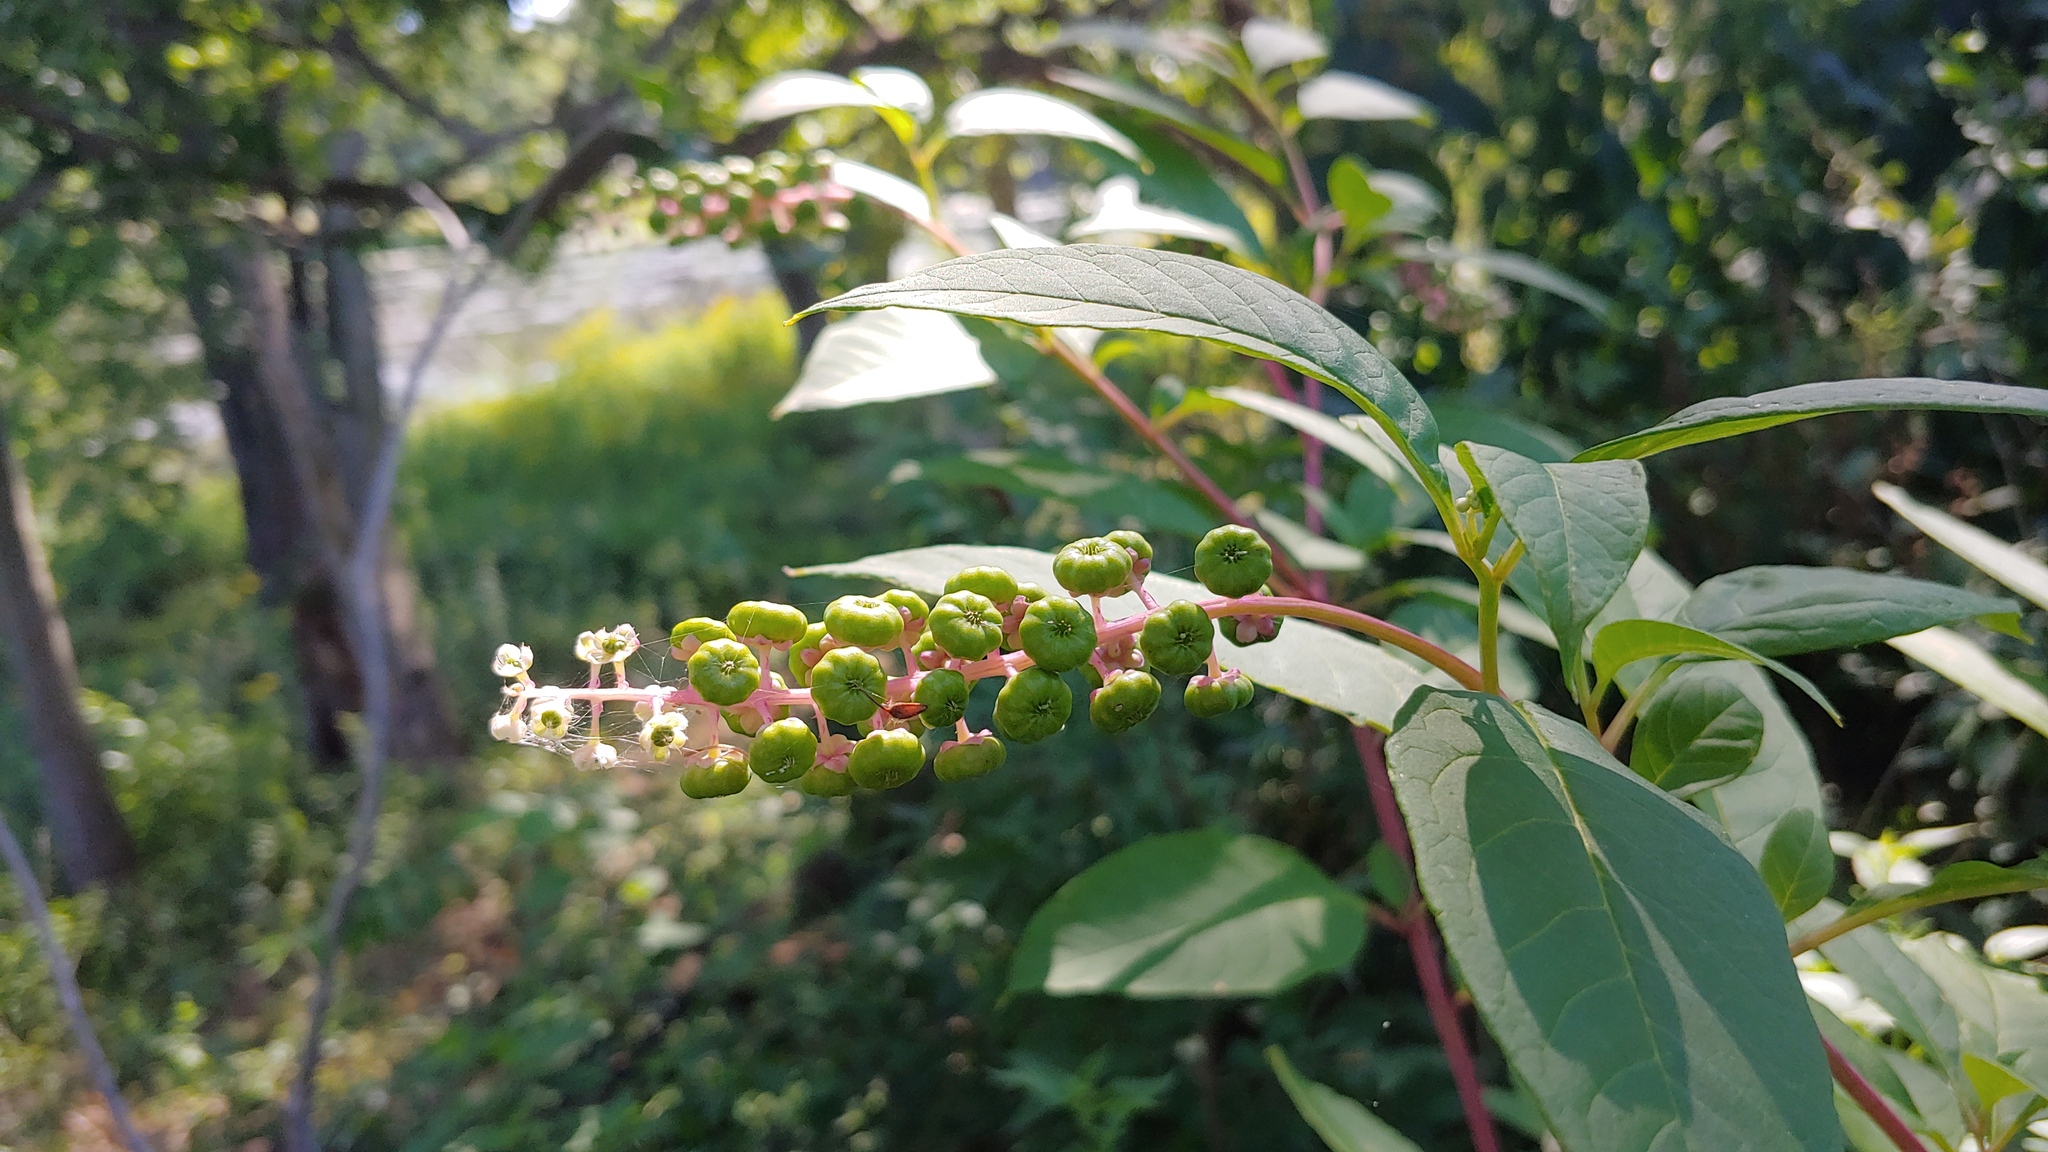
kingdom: Plantae
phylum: Tracheophyta
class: Magnoliopsida
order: Caryophyllales
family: Phytolaccaceae
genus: Phytolacca
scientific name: Phytolacca americana
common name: American pokeweed
